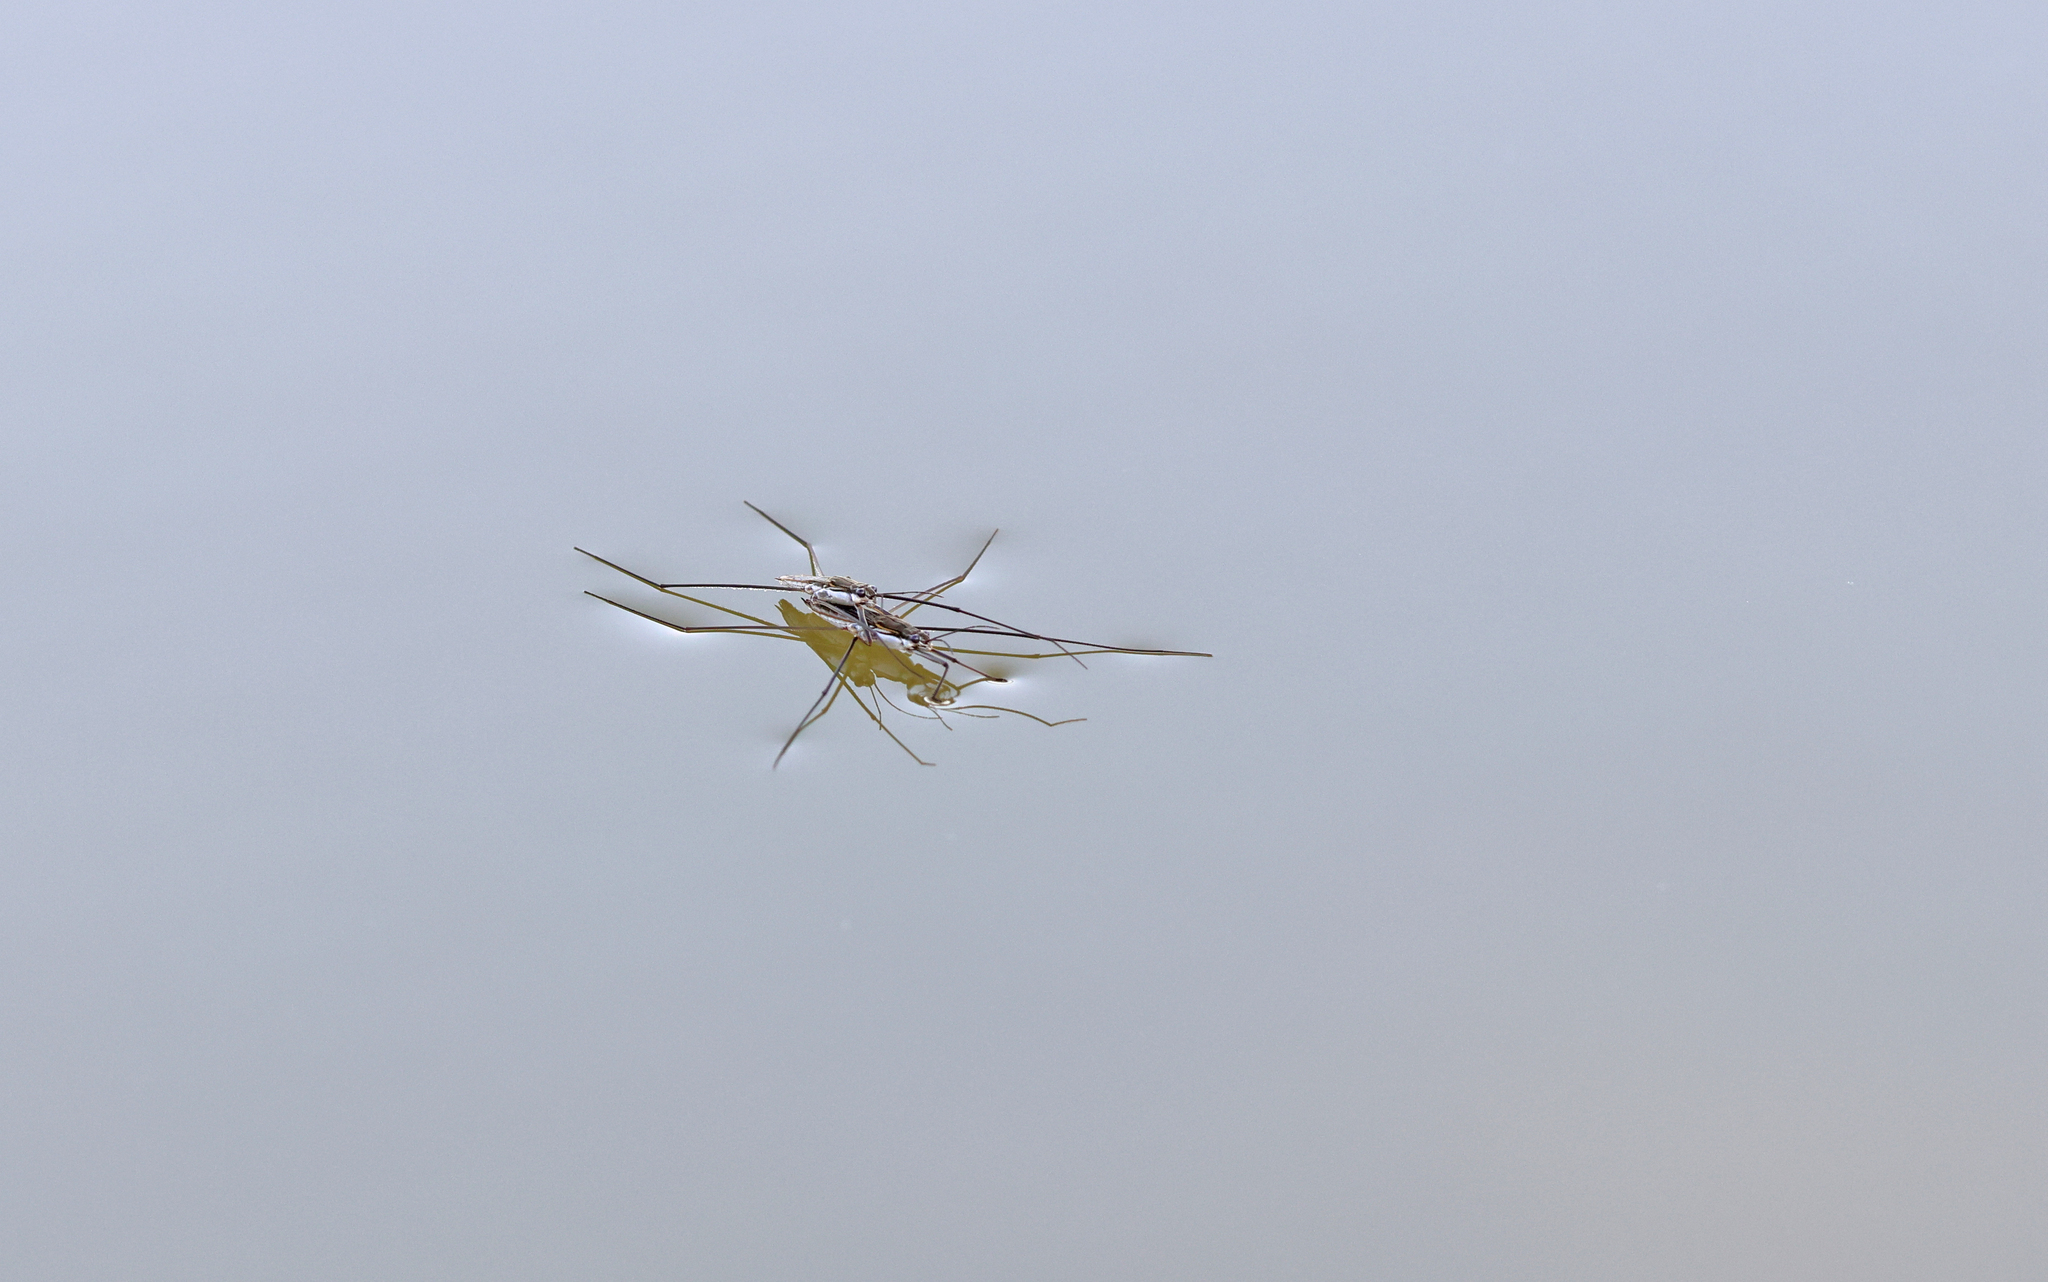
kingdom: Animalia
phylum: Arthropoda
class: Insecta
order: Hemiptera
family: Gerridae
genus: Aquarius
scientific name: Aquarius paludum
